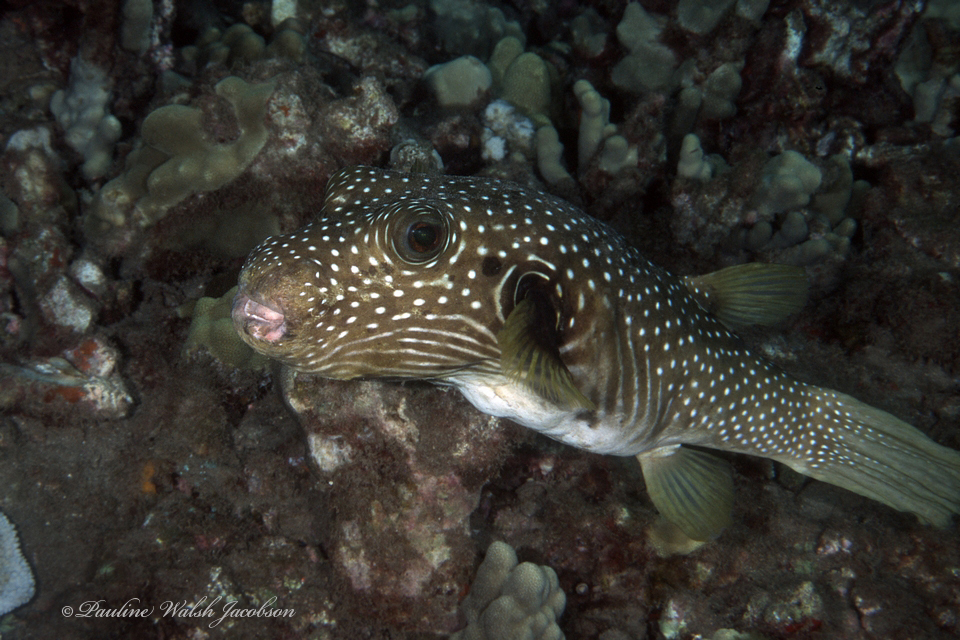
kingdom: Animalia
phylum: Chordata
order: Tetraodontiformes
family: Tetraodontidae
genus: Arothron
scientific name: Arothron hispidus
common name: Stripebelly puffer
